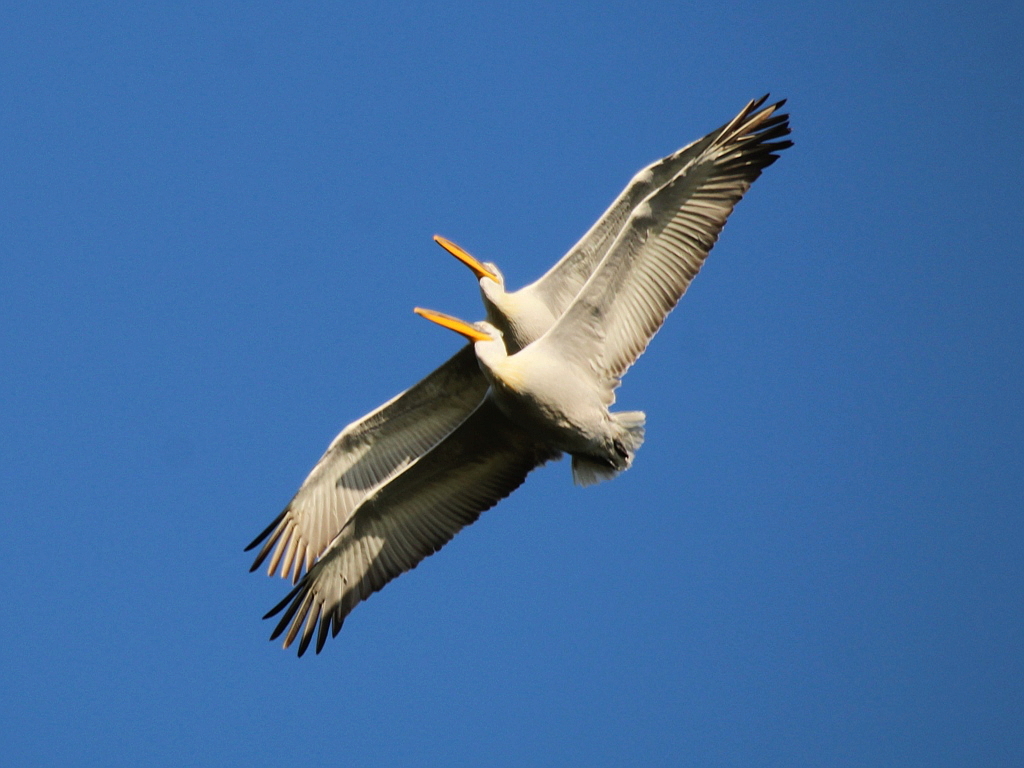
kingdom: Animalia
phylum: Chordata
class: Aves
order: Pelecaniformes
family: Pelecanidae
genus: Pelecanus
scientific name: Pelecanus crispus
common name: Dalmatian pelican
